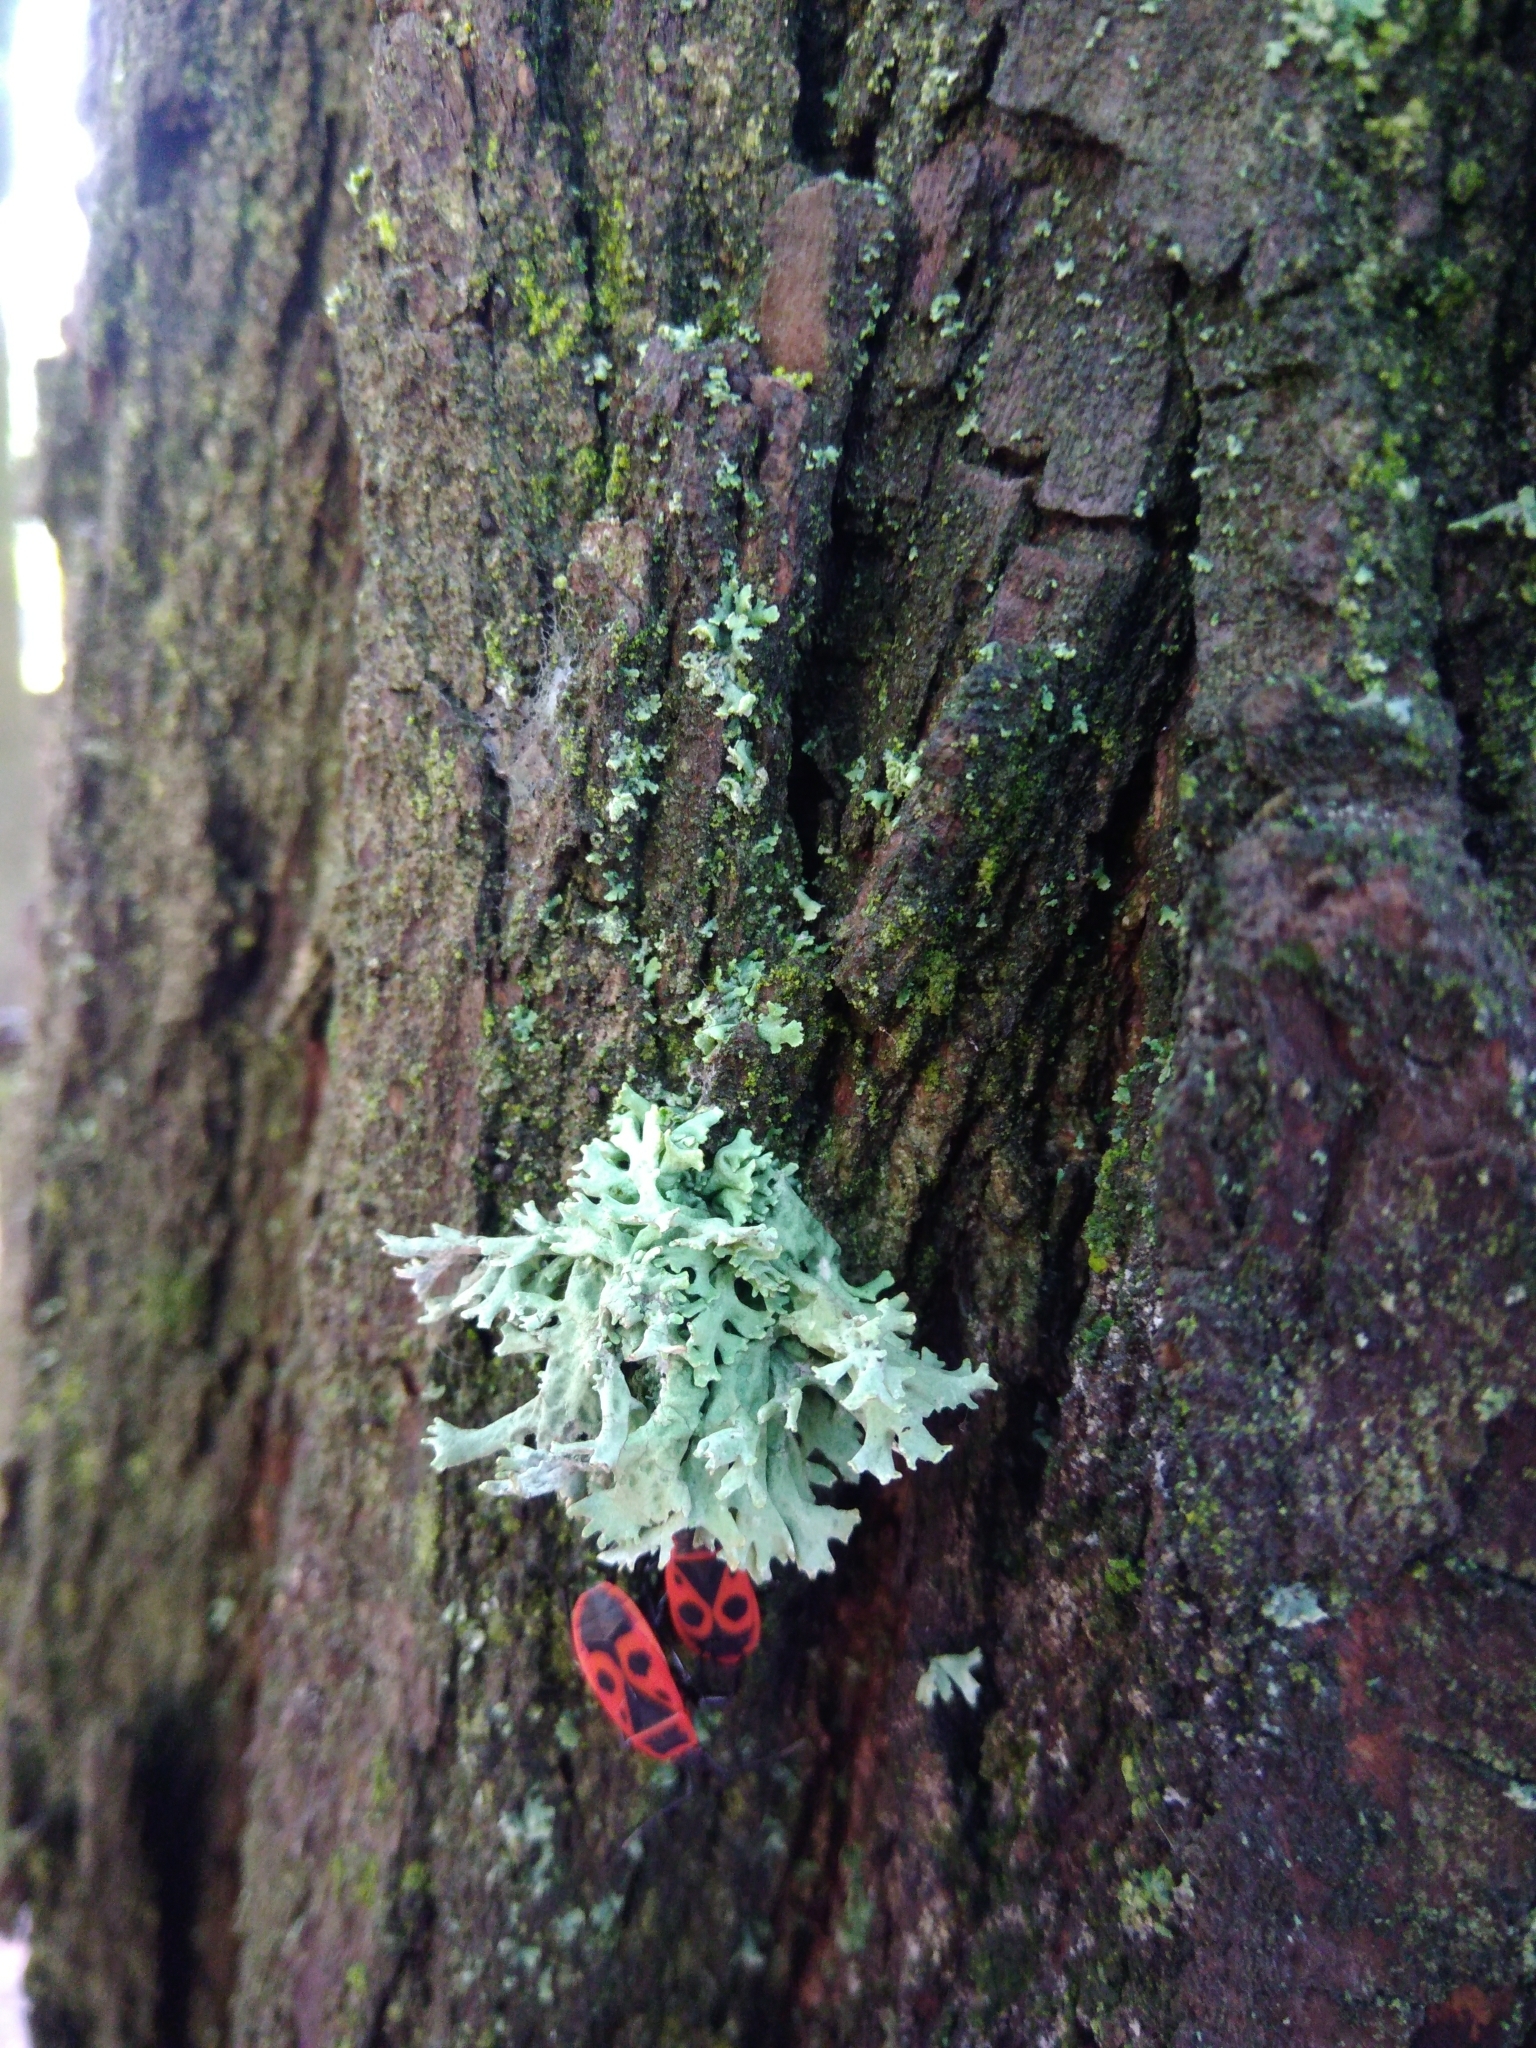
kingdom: Fungi
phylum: Ascomycota
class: Lecanoromycetes
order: Lecanorales
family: Parmeliaceae
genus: Evernia
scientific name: Evernia prunastri
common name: Oak moss
